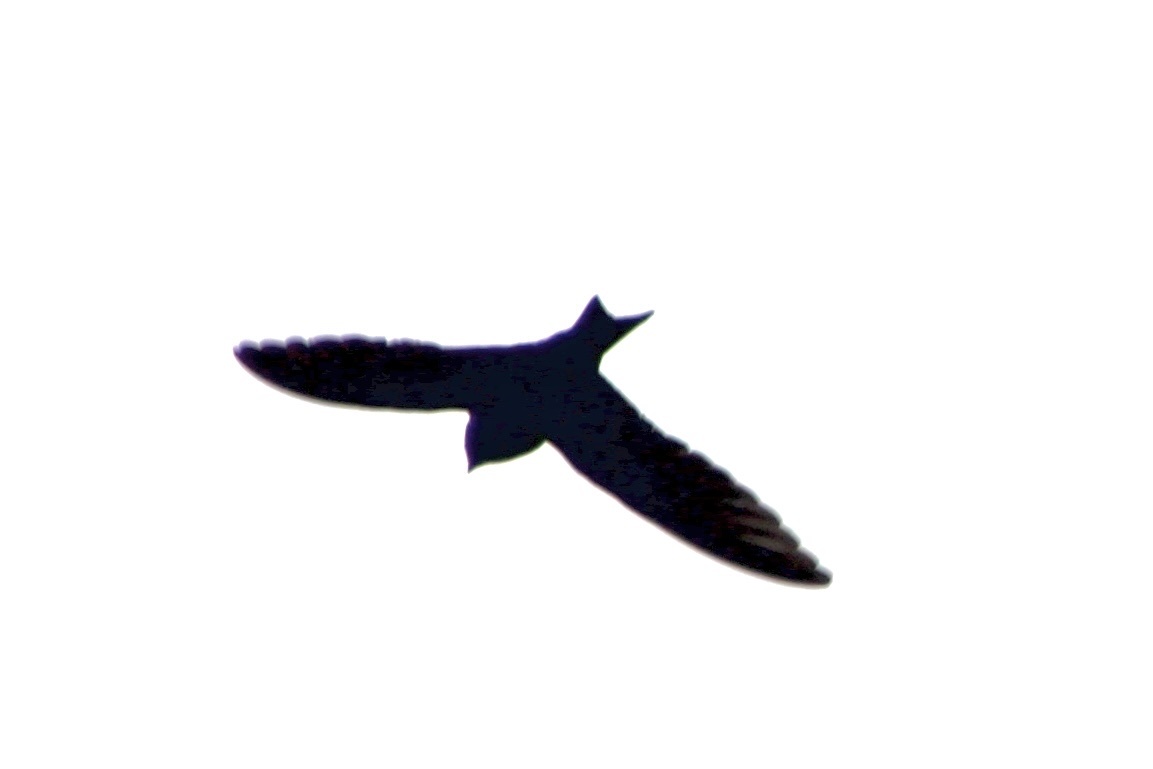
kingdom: Animalia
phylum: Chordata
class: Aves
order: Passeriformes
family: Hirundinidae
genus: Progne
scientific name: Progne subis
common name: Purple martin
